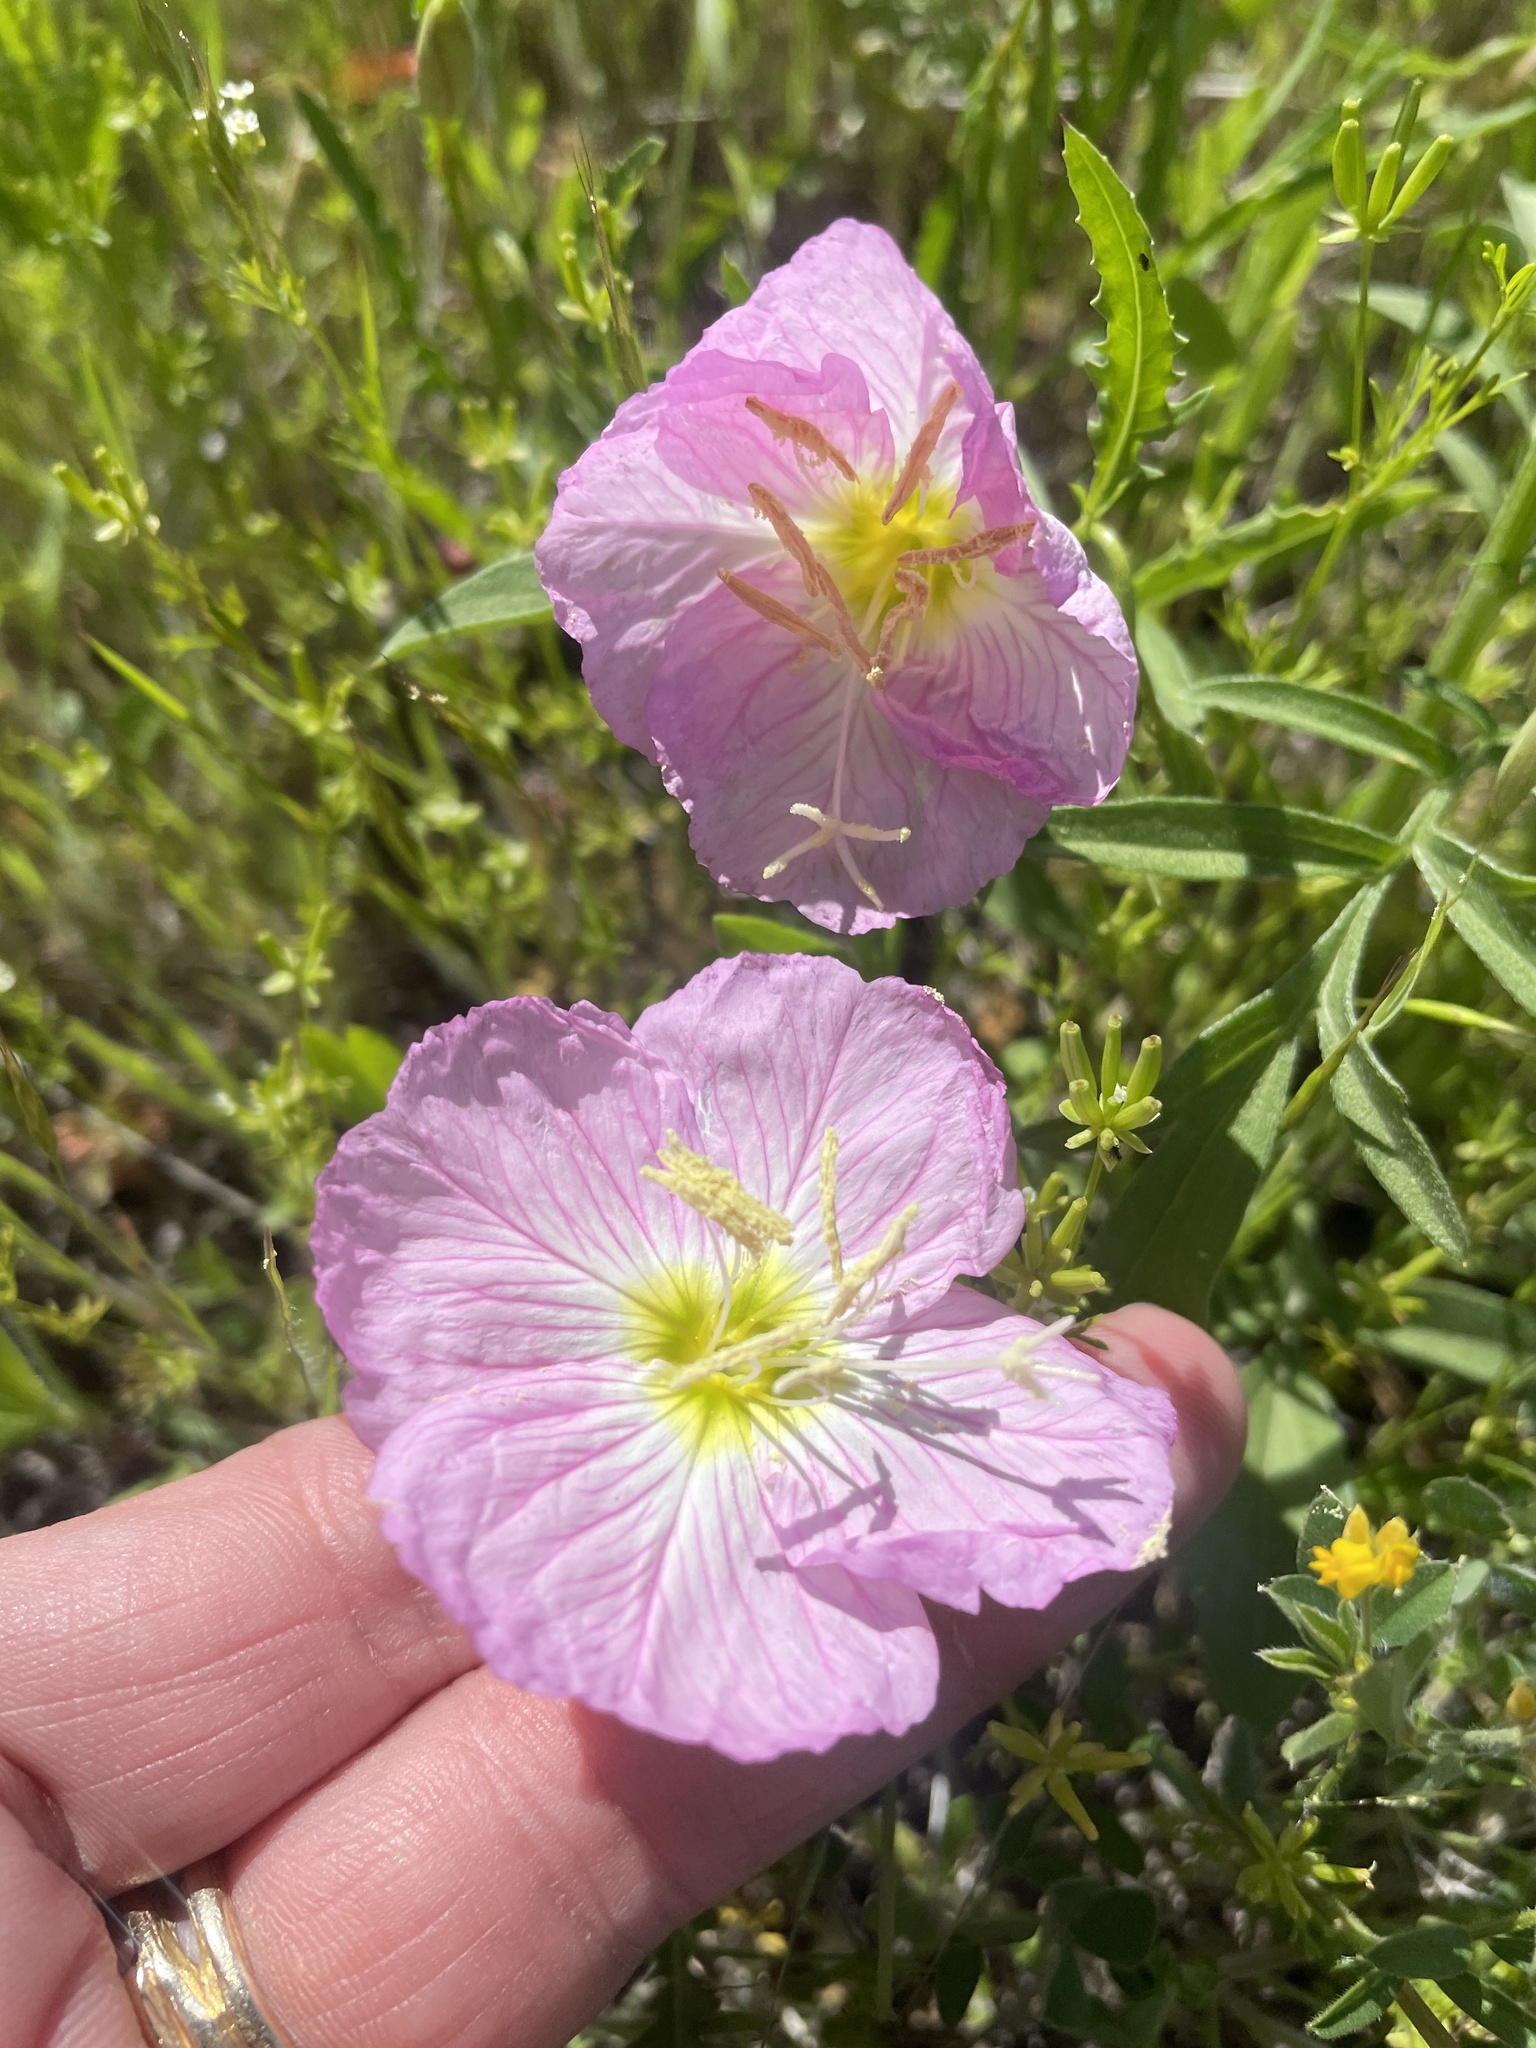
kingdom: Plantae
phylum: Tracheophyta
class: Magnoliopsida
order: Myrtales
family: Onagraceae
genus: Oenothera
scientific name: Oenothera speciosa
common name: White evening-primrose
